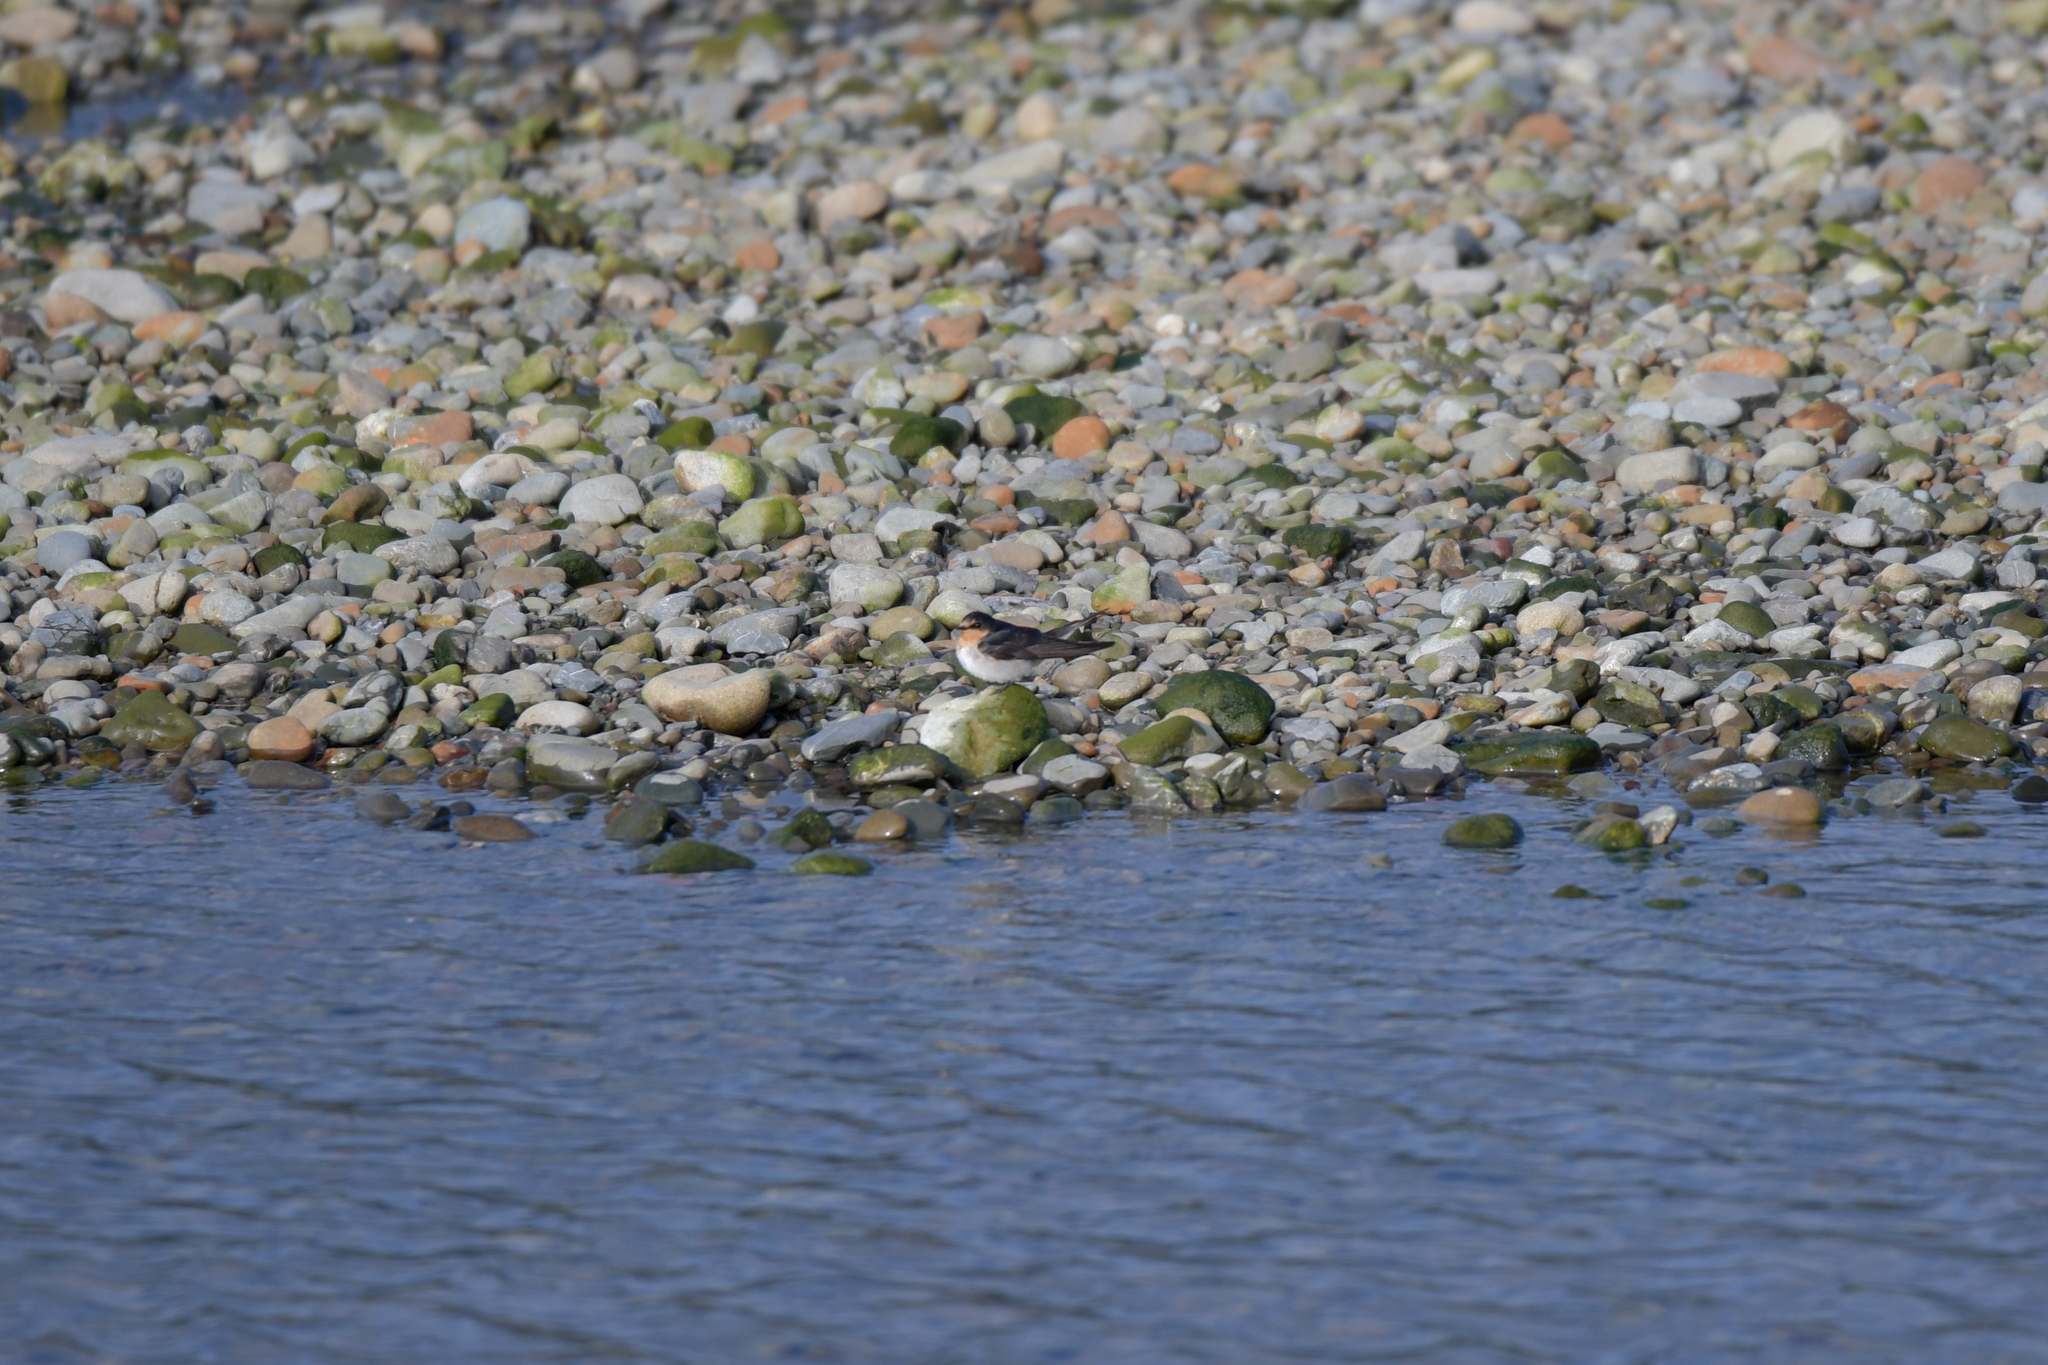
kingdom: Animalia
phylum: Chordata
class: Aves
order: Passeriformes
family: Hirundinidae
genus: Hirundo
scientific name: Hirundo neoxena
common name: Welcome swallow
